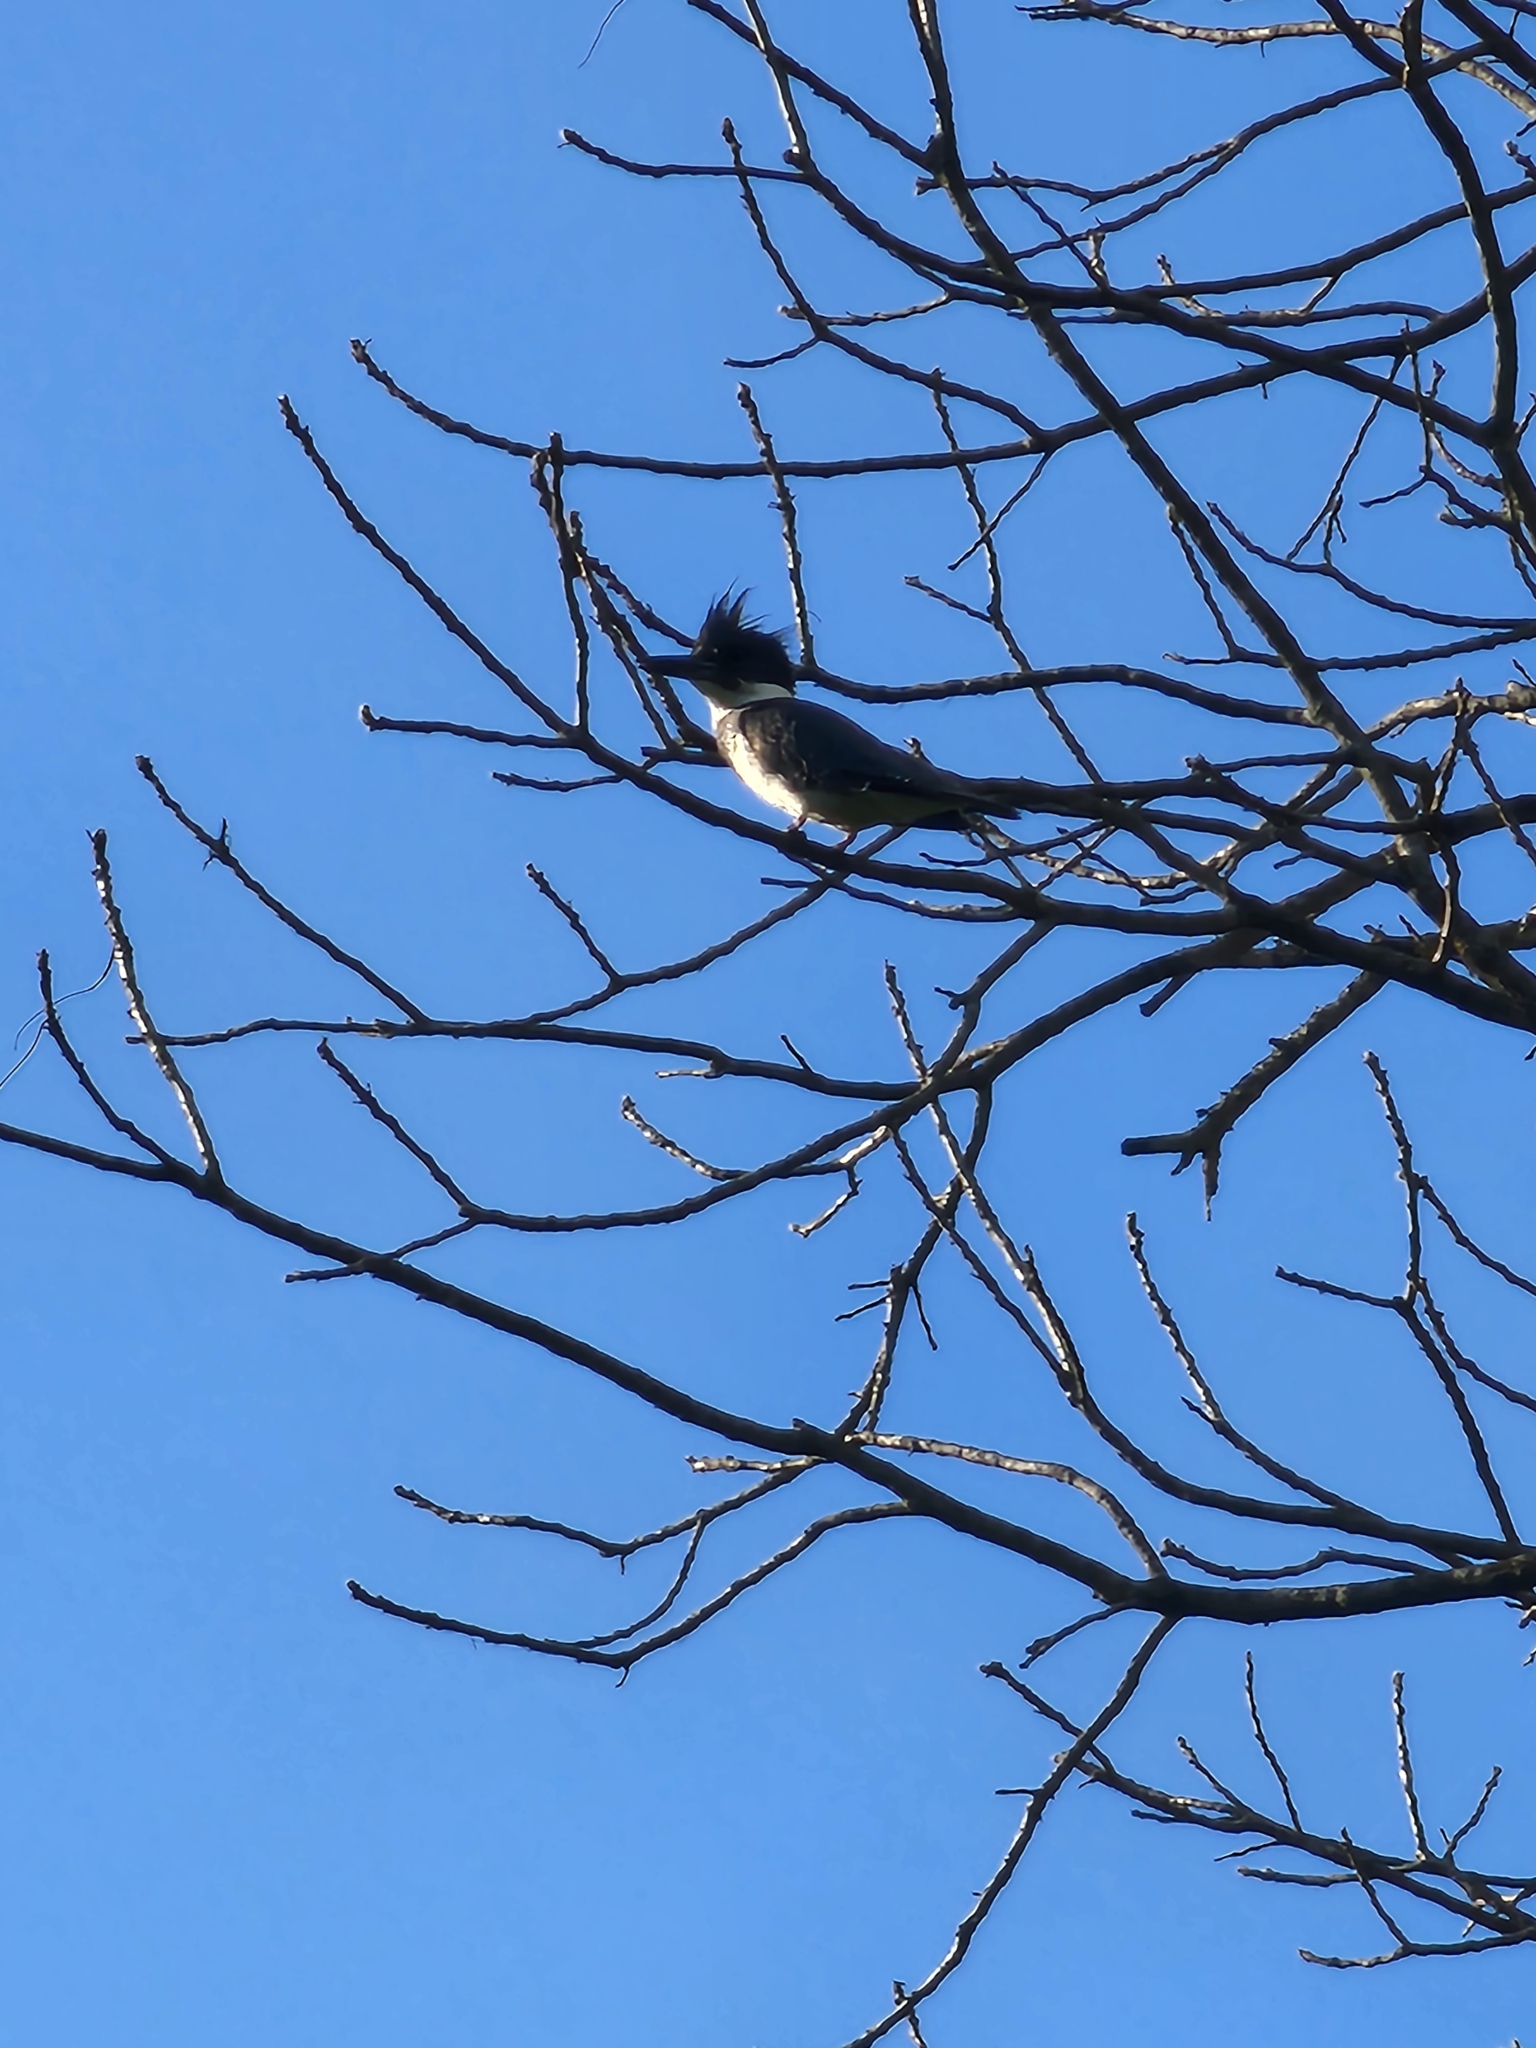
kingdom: Animalia
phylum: Chordata
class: Aves
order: Coraciiformes
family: Alcedinidae
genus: Megaceryle
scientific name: Megaceryle alcyon
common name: Belted kingfisher
